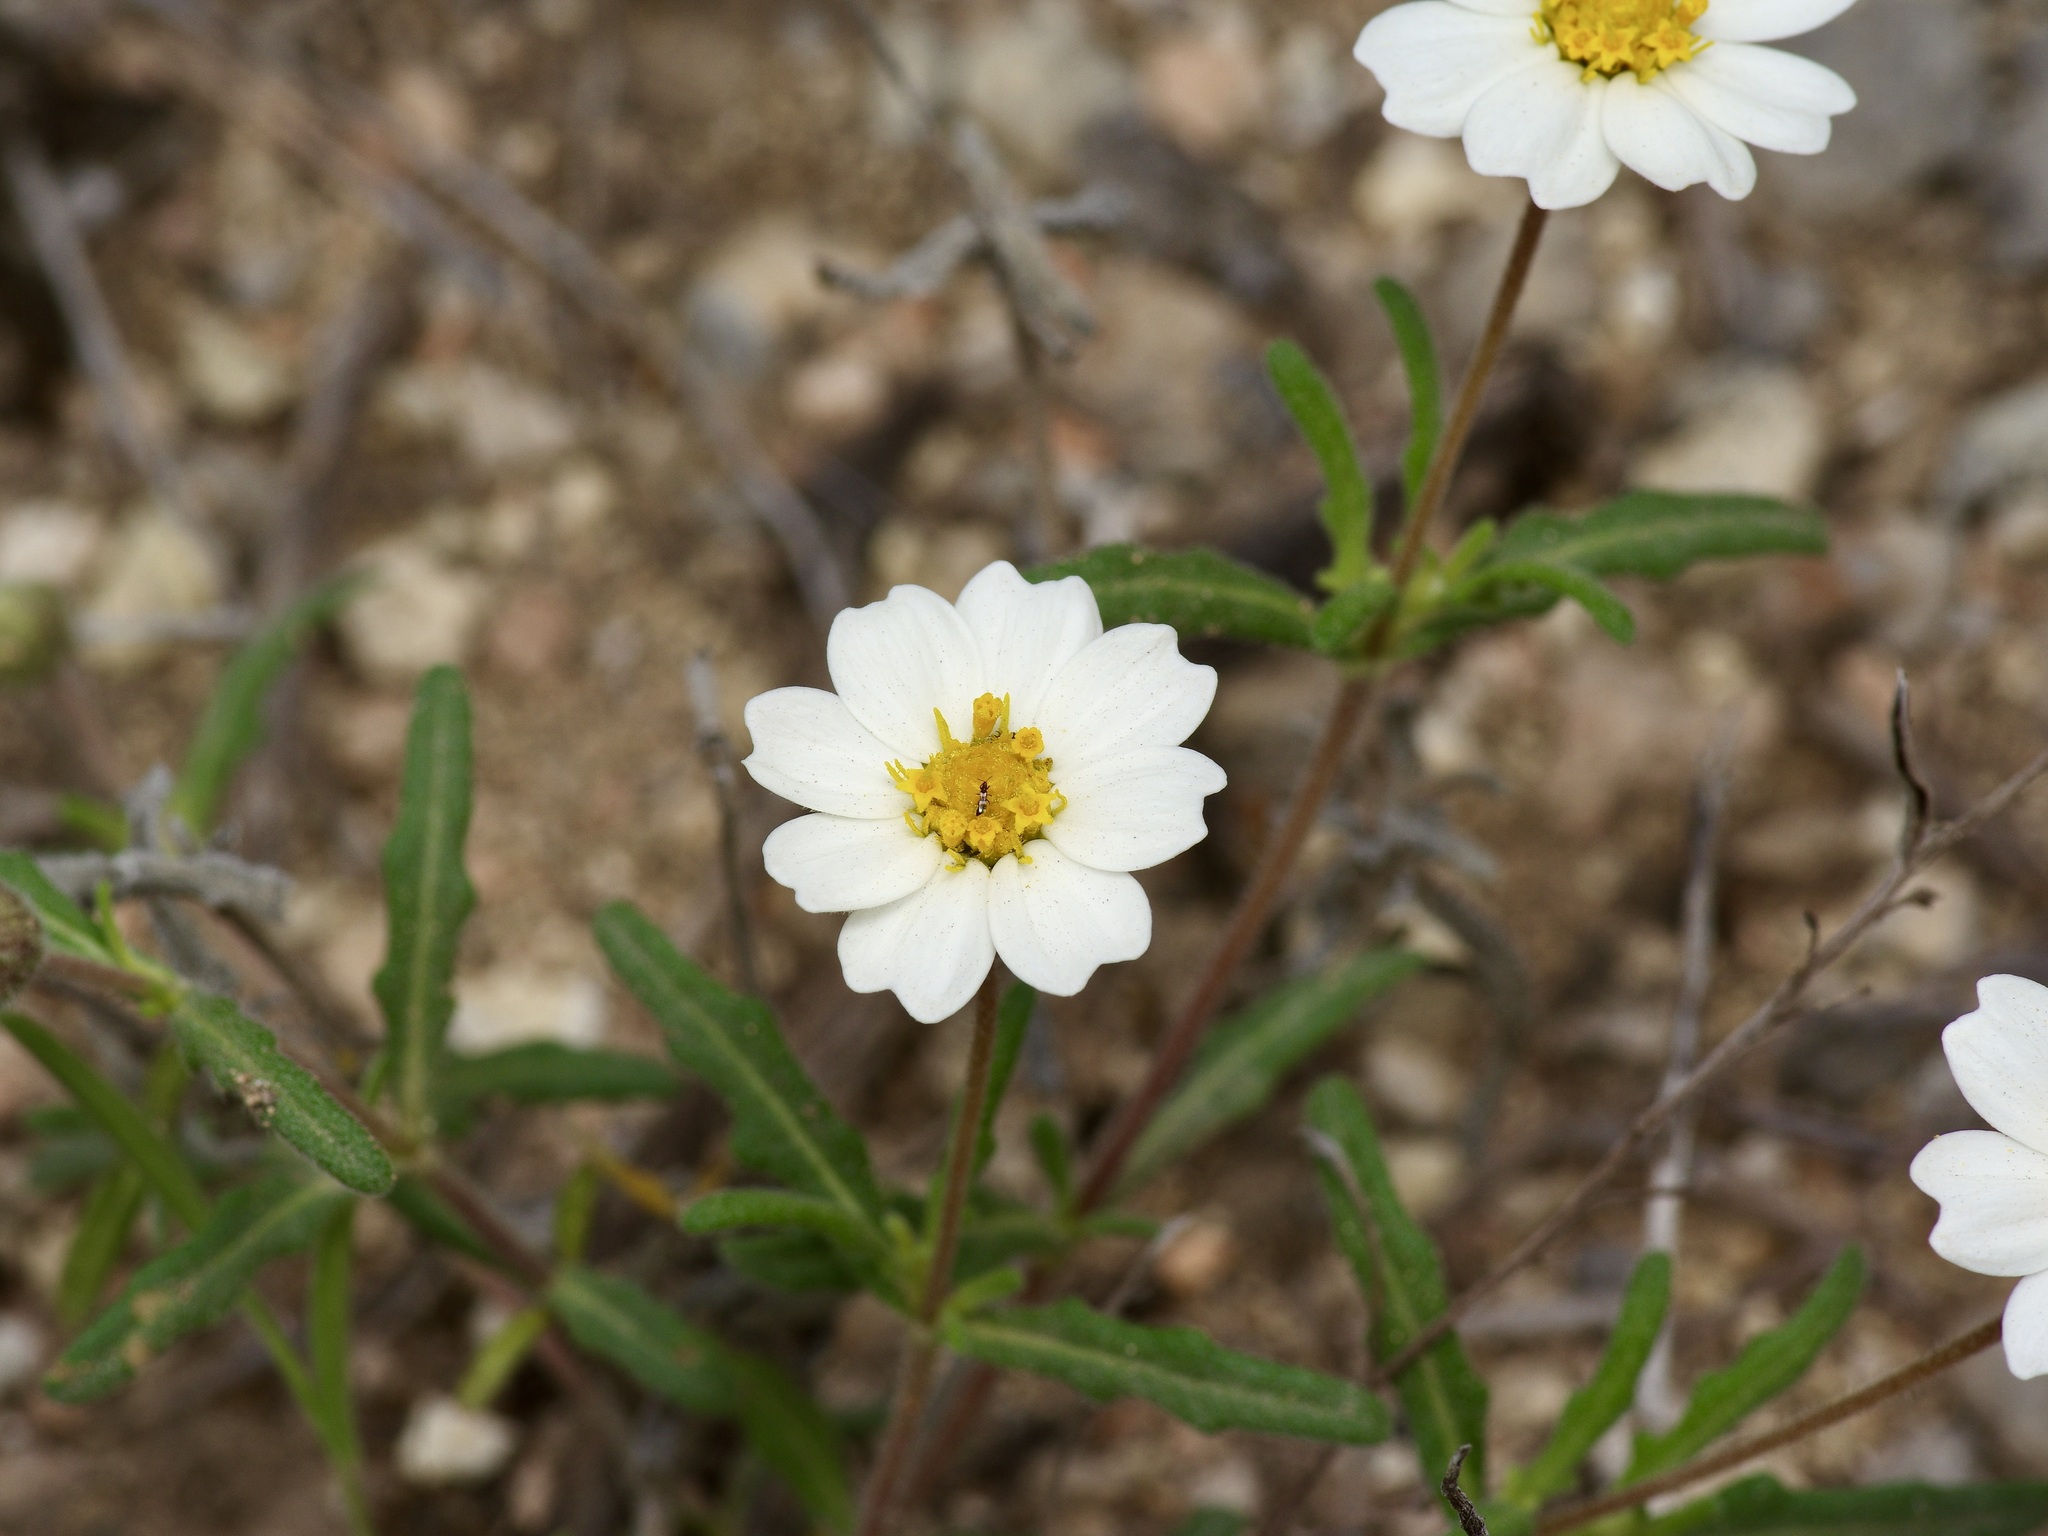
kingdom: Plantae
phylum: Tracheophyta
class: Magnoliopsida
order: Asterales
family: Asteraceae
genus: Melampodium
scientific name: Melampodium leucanthum
